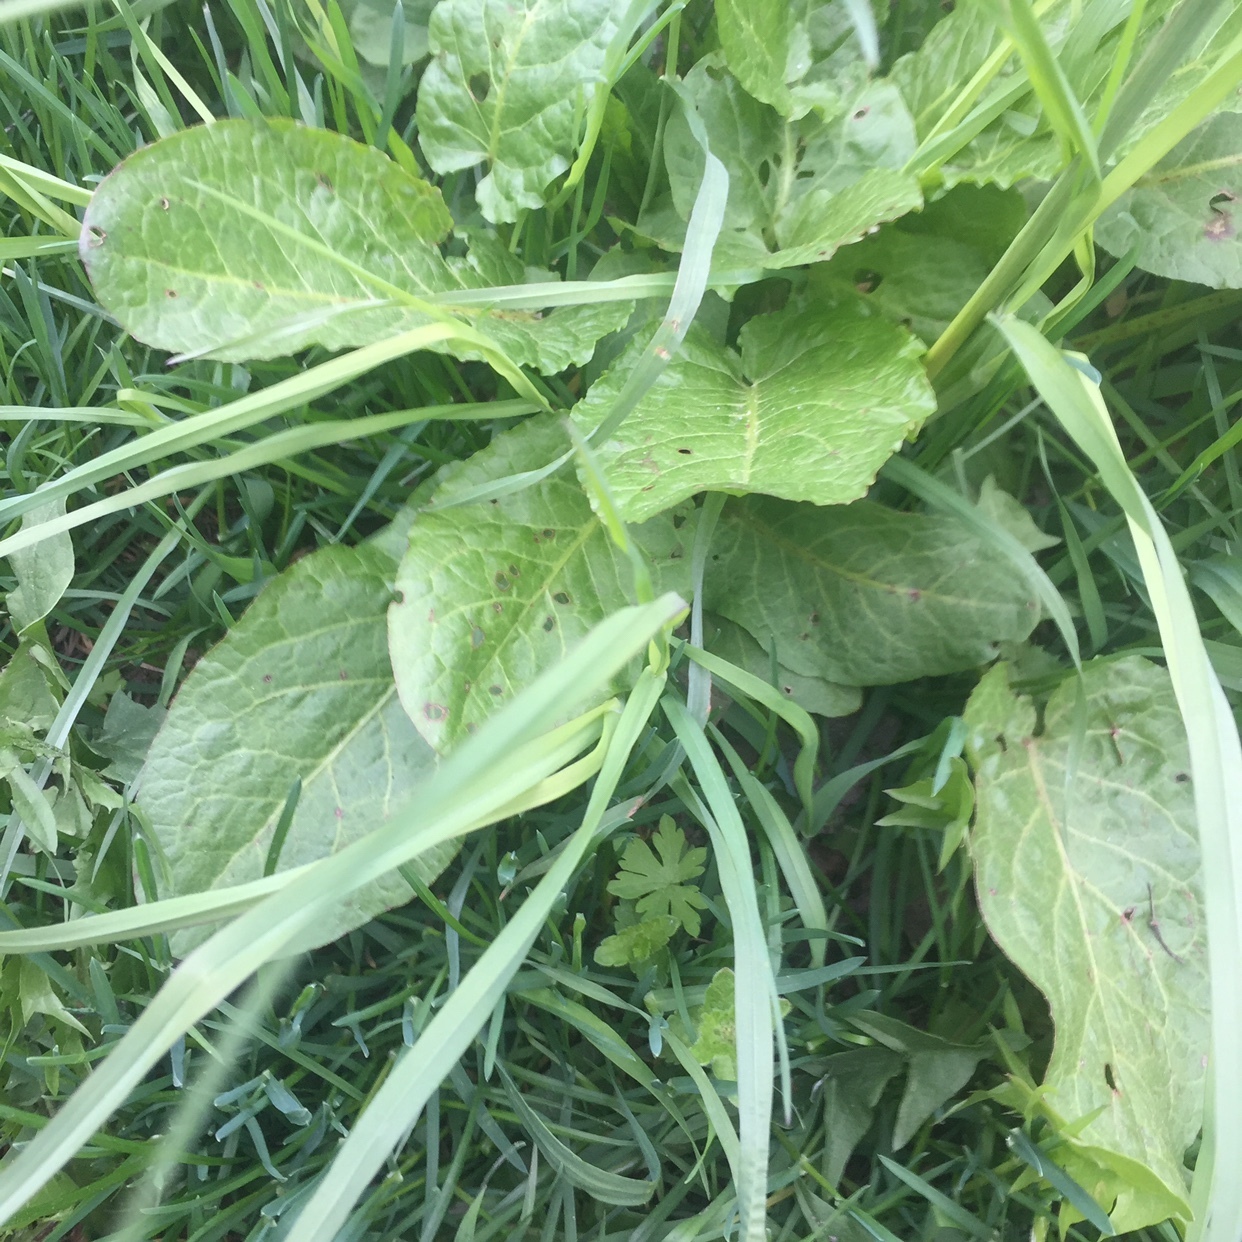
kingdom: Plantae
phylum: Tracheophyta
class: Magnoliopsida
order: Caryophyllales
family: Polygonaceae
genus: Rumex
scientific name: Rumex obtusifolius
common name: Bitter dock
